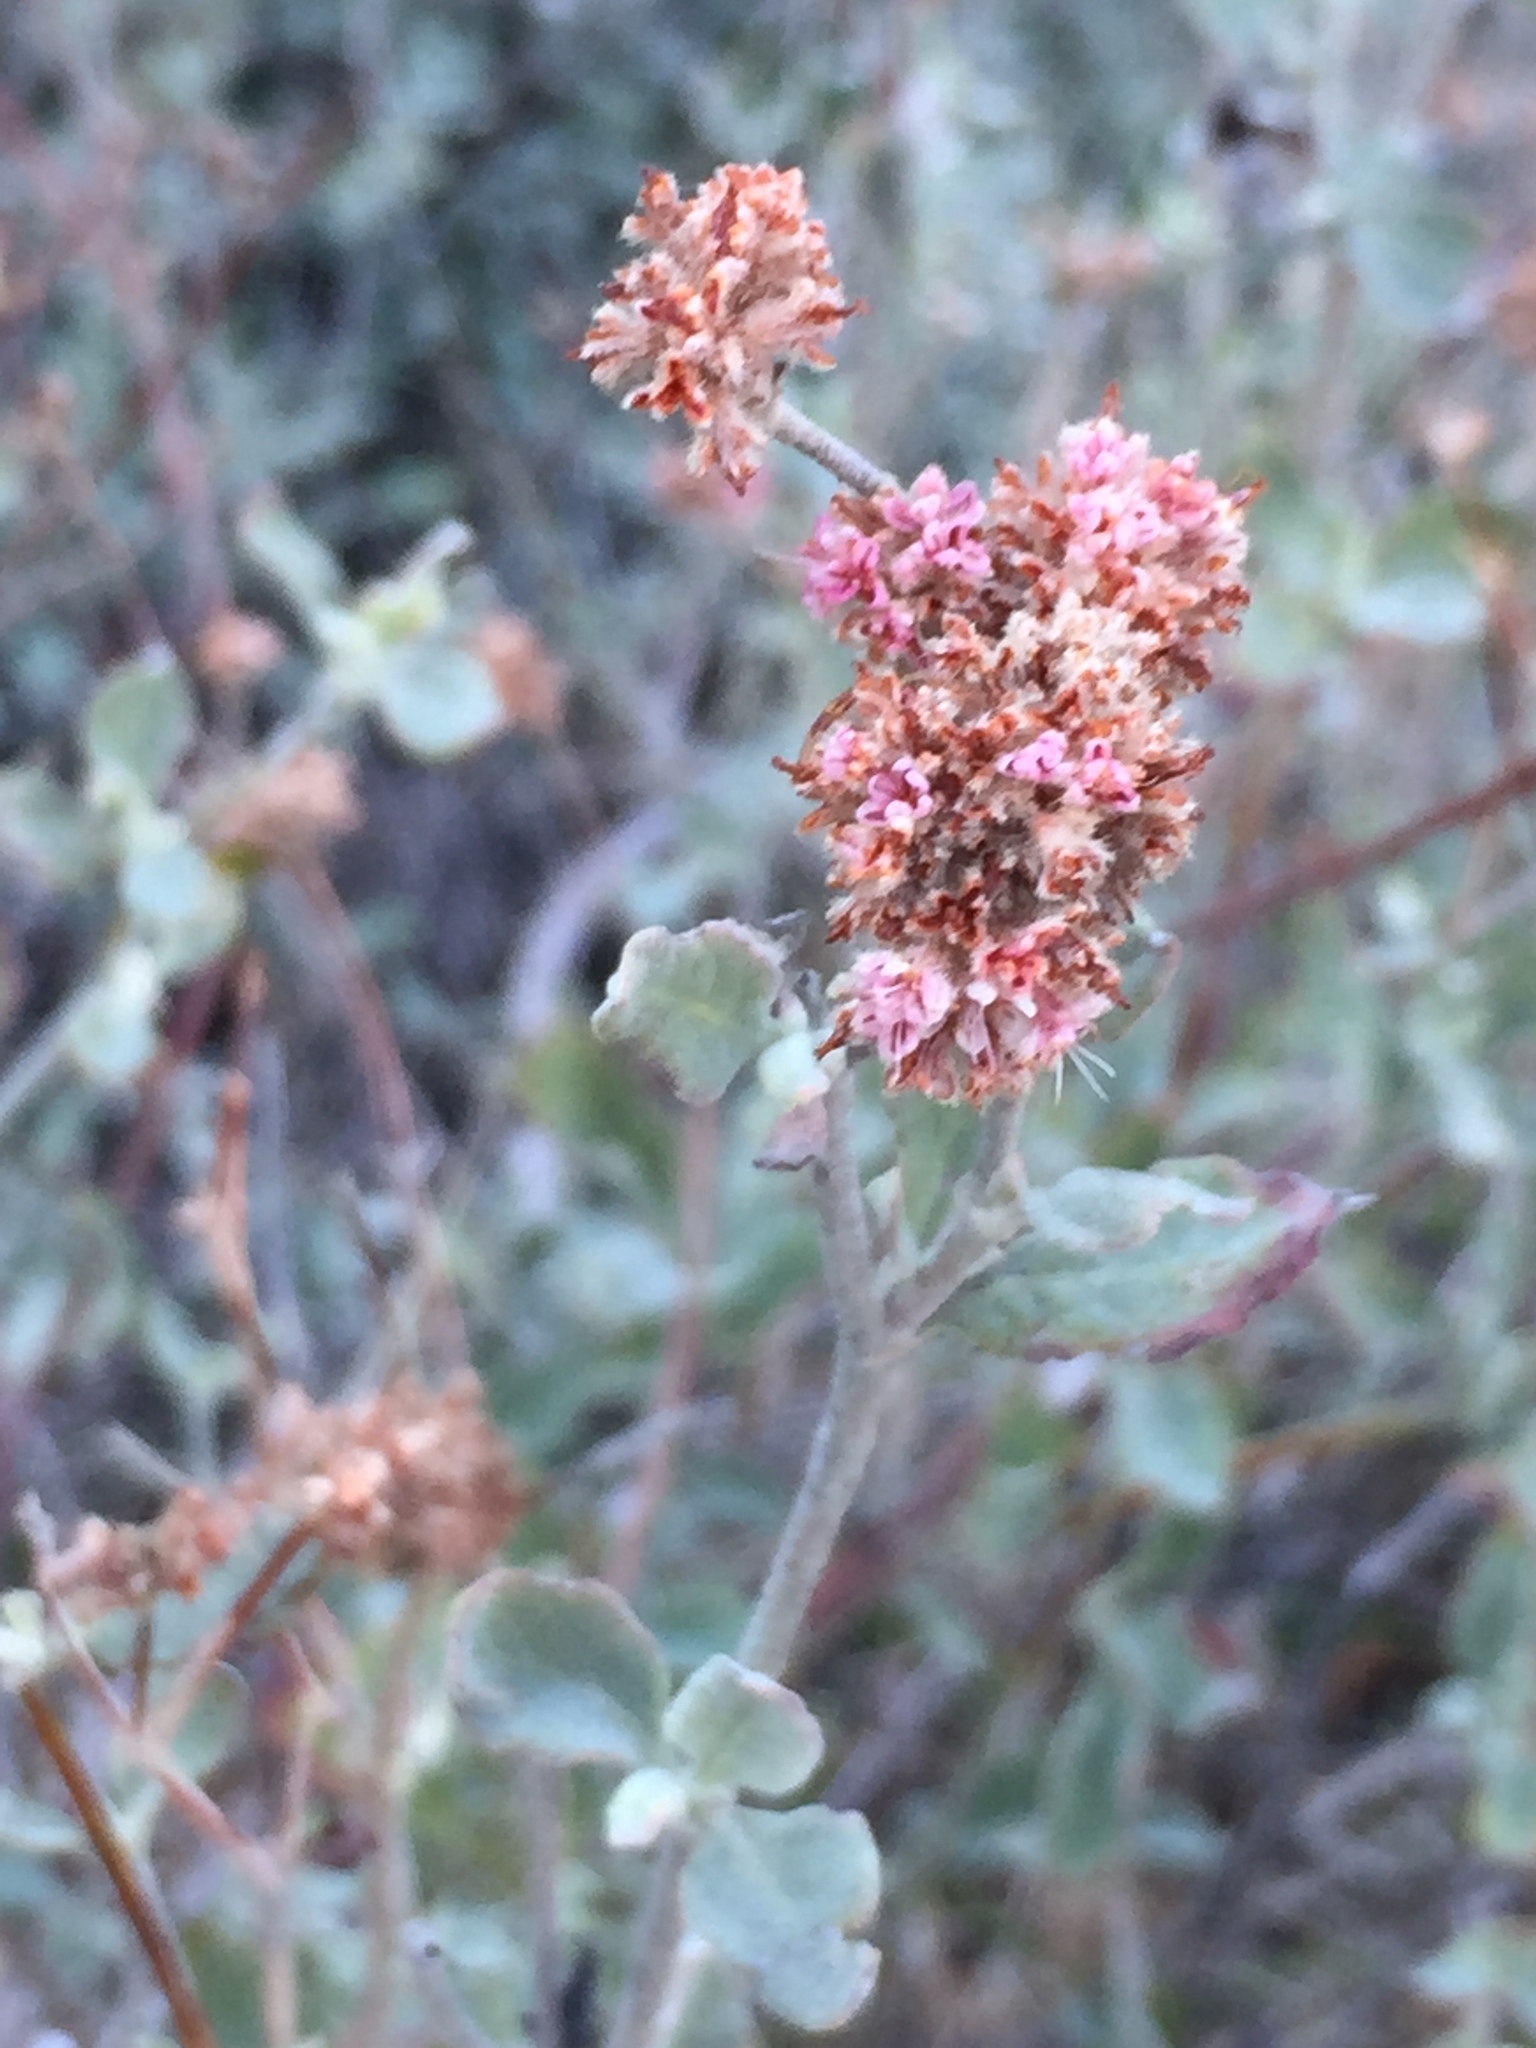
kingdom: Plantae
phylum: Tracheophyta
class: Magnoliopsida
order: Caryophyllales
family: Polygonaceae
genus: Eriogonum
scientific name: Eriogonum cinereum
